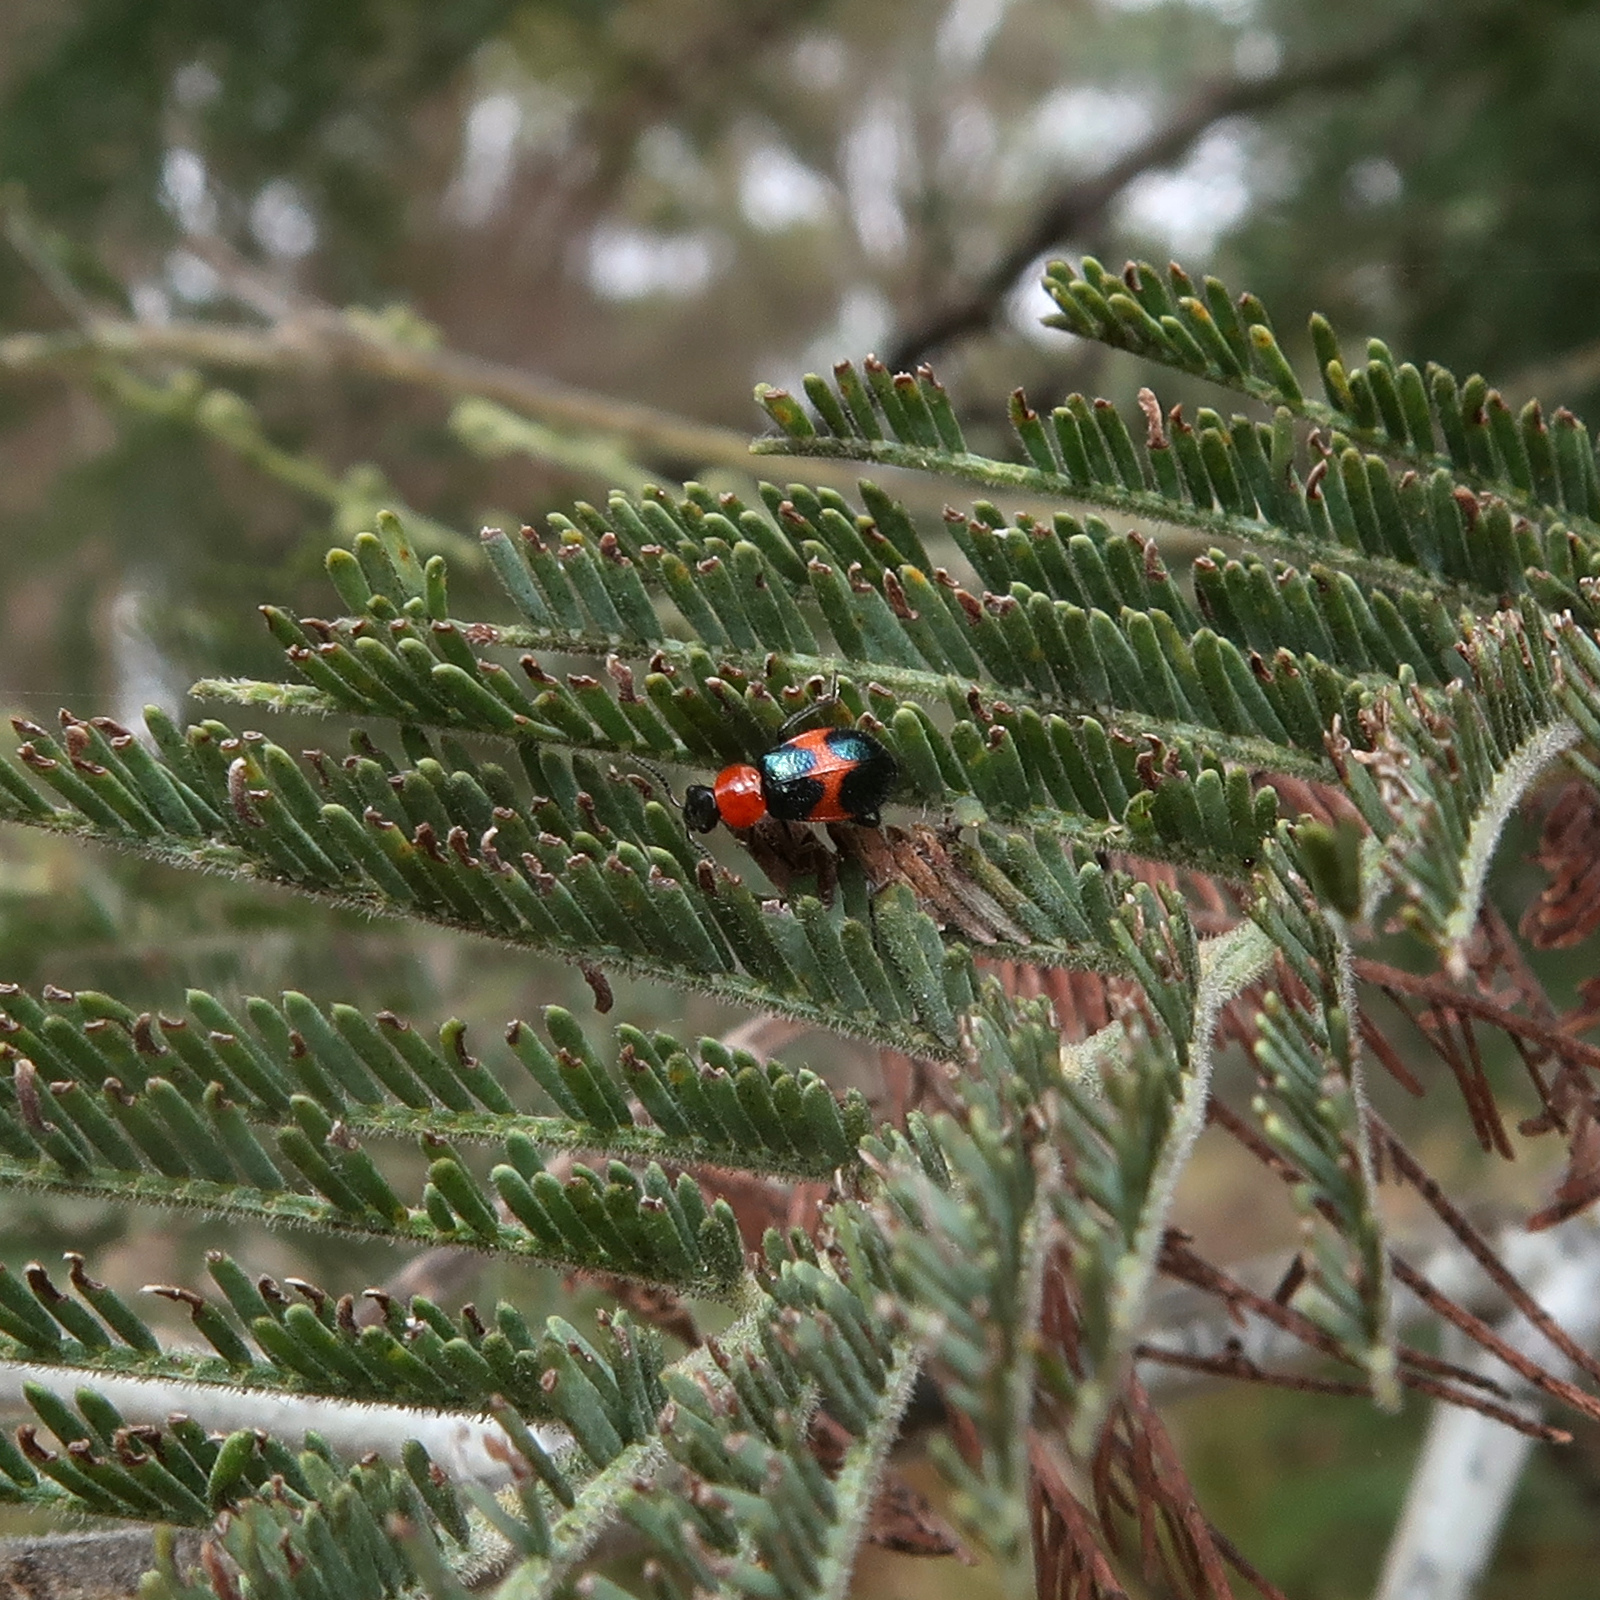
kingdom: Animalia
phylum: Arthropoda
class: Insecta
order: Coleoptera
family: Melyridae
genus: Dicranolaius
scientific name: Dicranolaius
